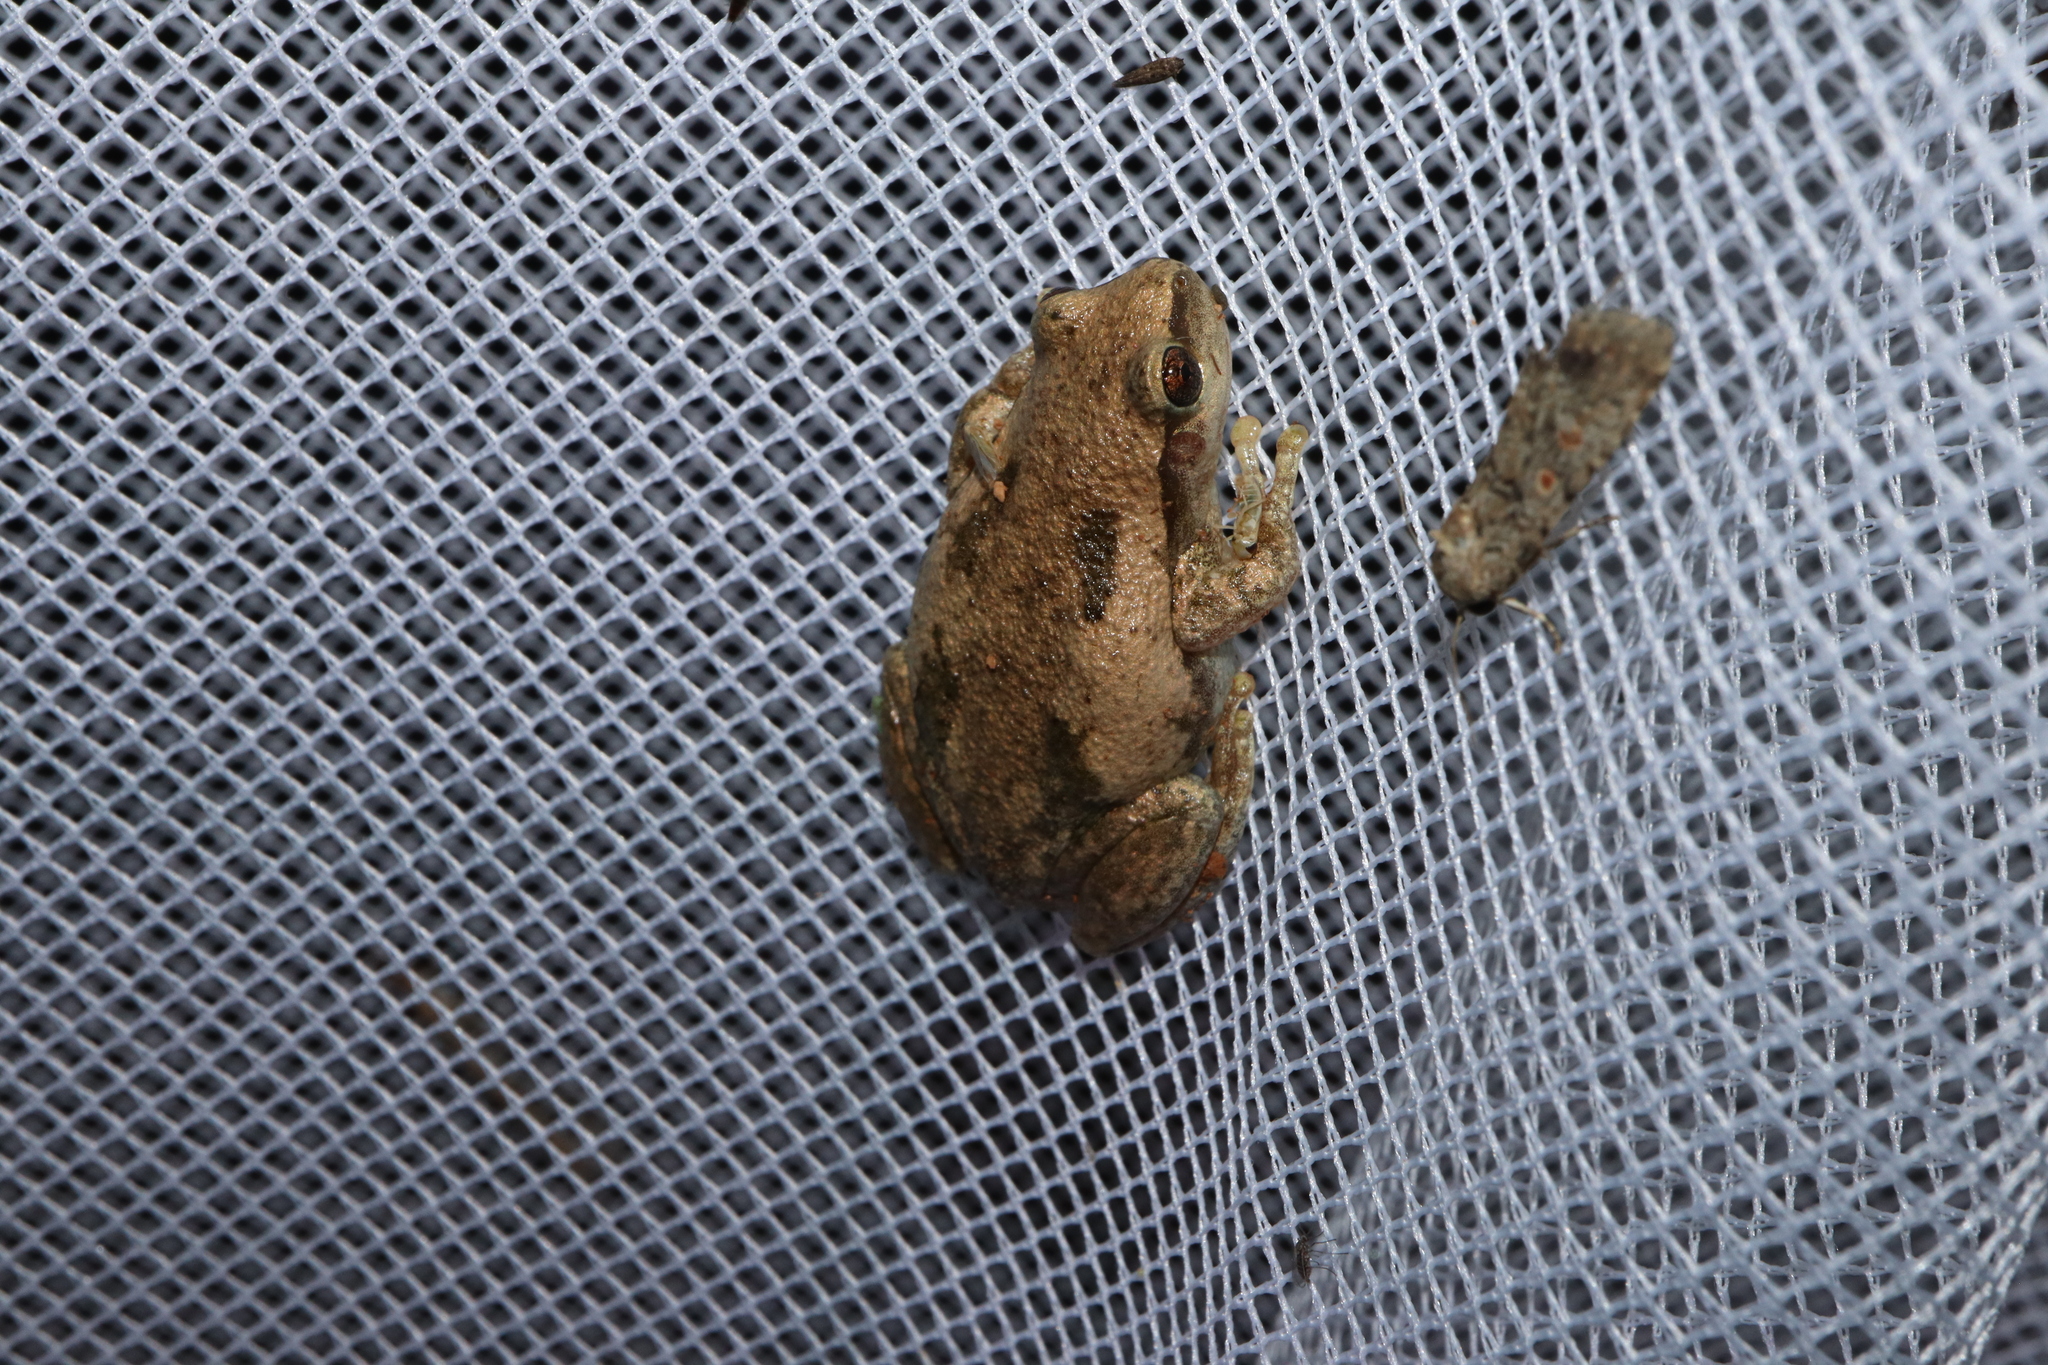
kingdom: Animalia
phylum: Chordata
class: Amphibia
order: Anura
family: Pelodryadidae
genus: Litoria
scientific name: Litoria rubella
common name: Desert tree frog
